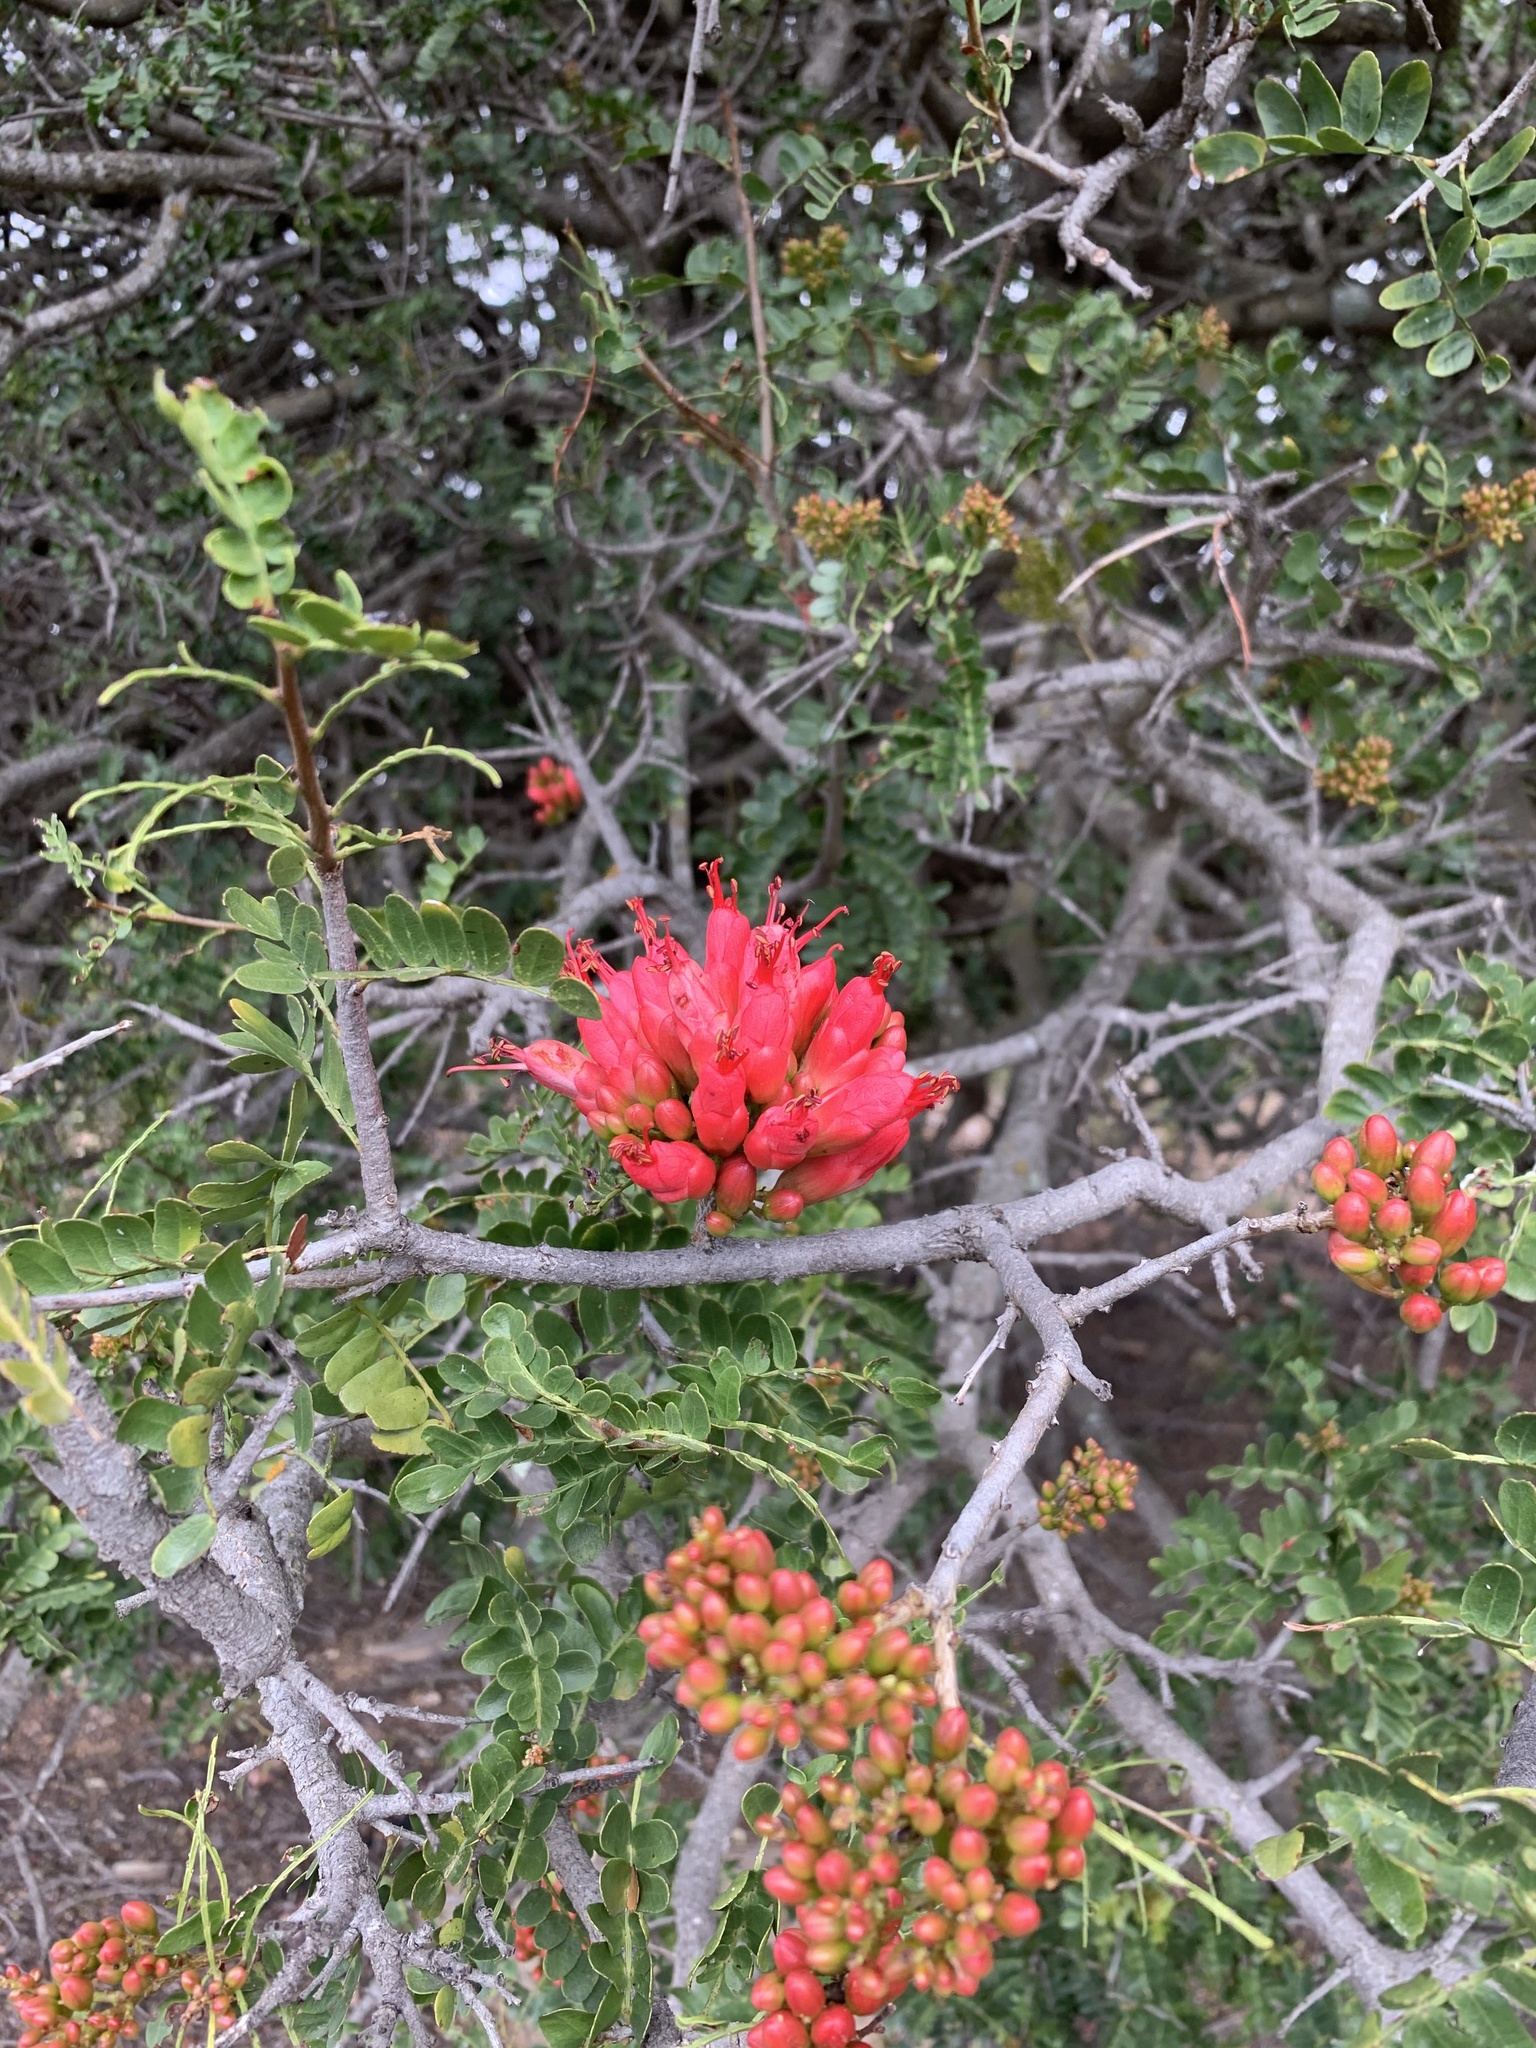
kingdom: Plantae
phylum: Tracheophyta
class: Magnoliopsida
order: Fabales
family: Fabaceae
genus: Schotia
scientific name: Schotia afra
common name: Hottentot's bean
